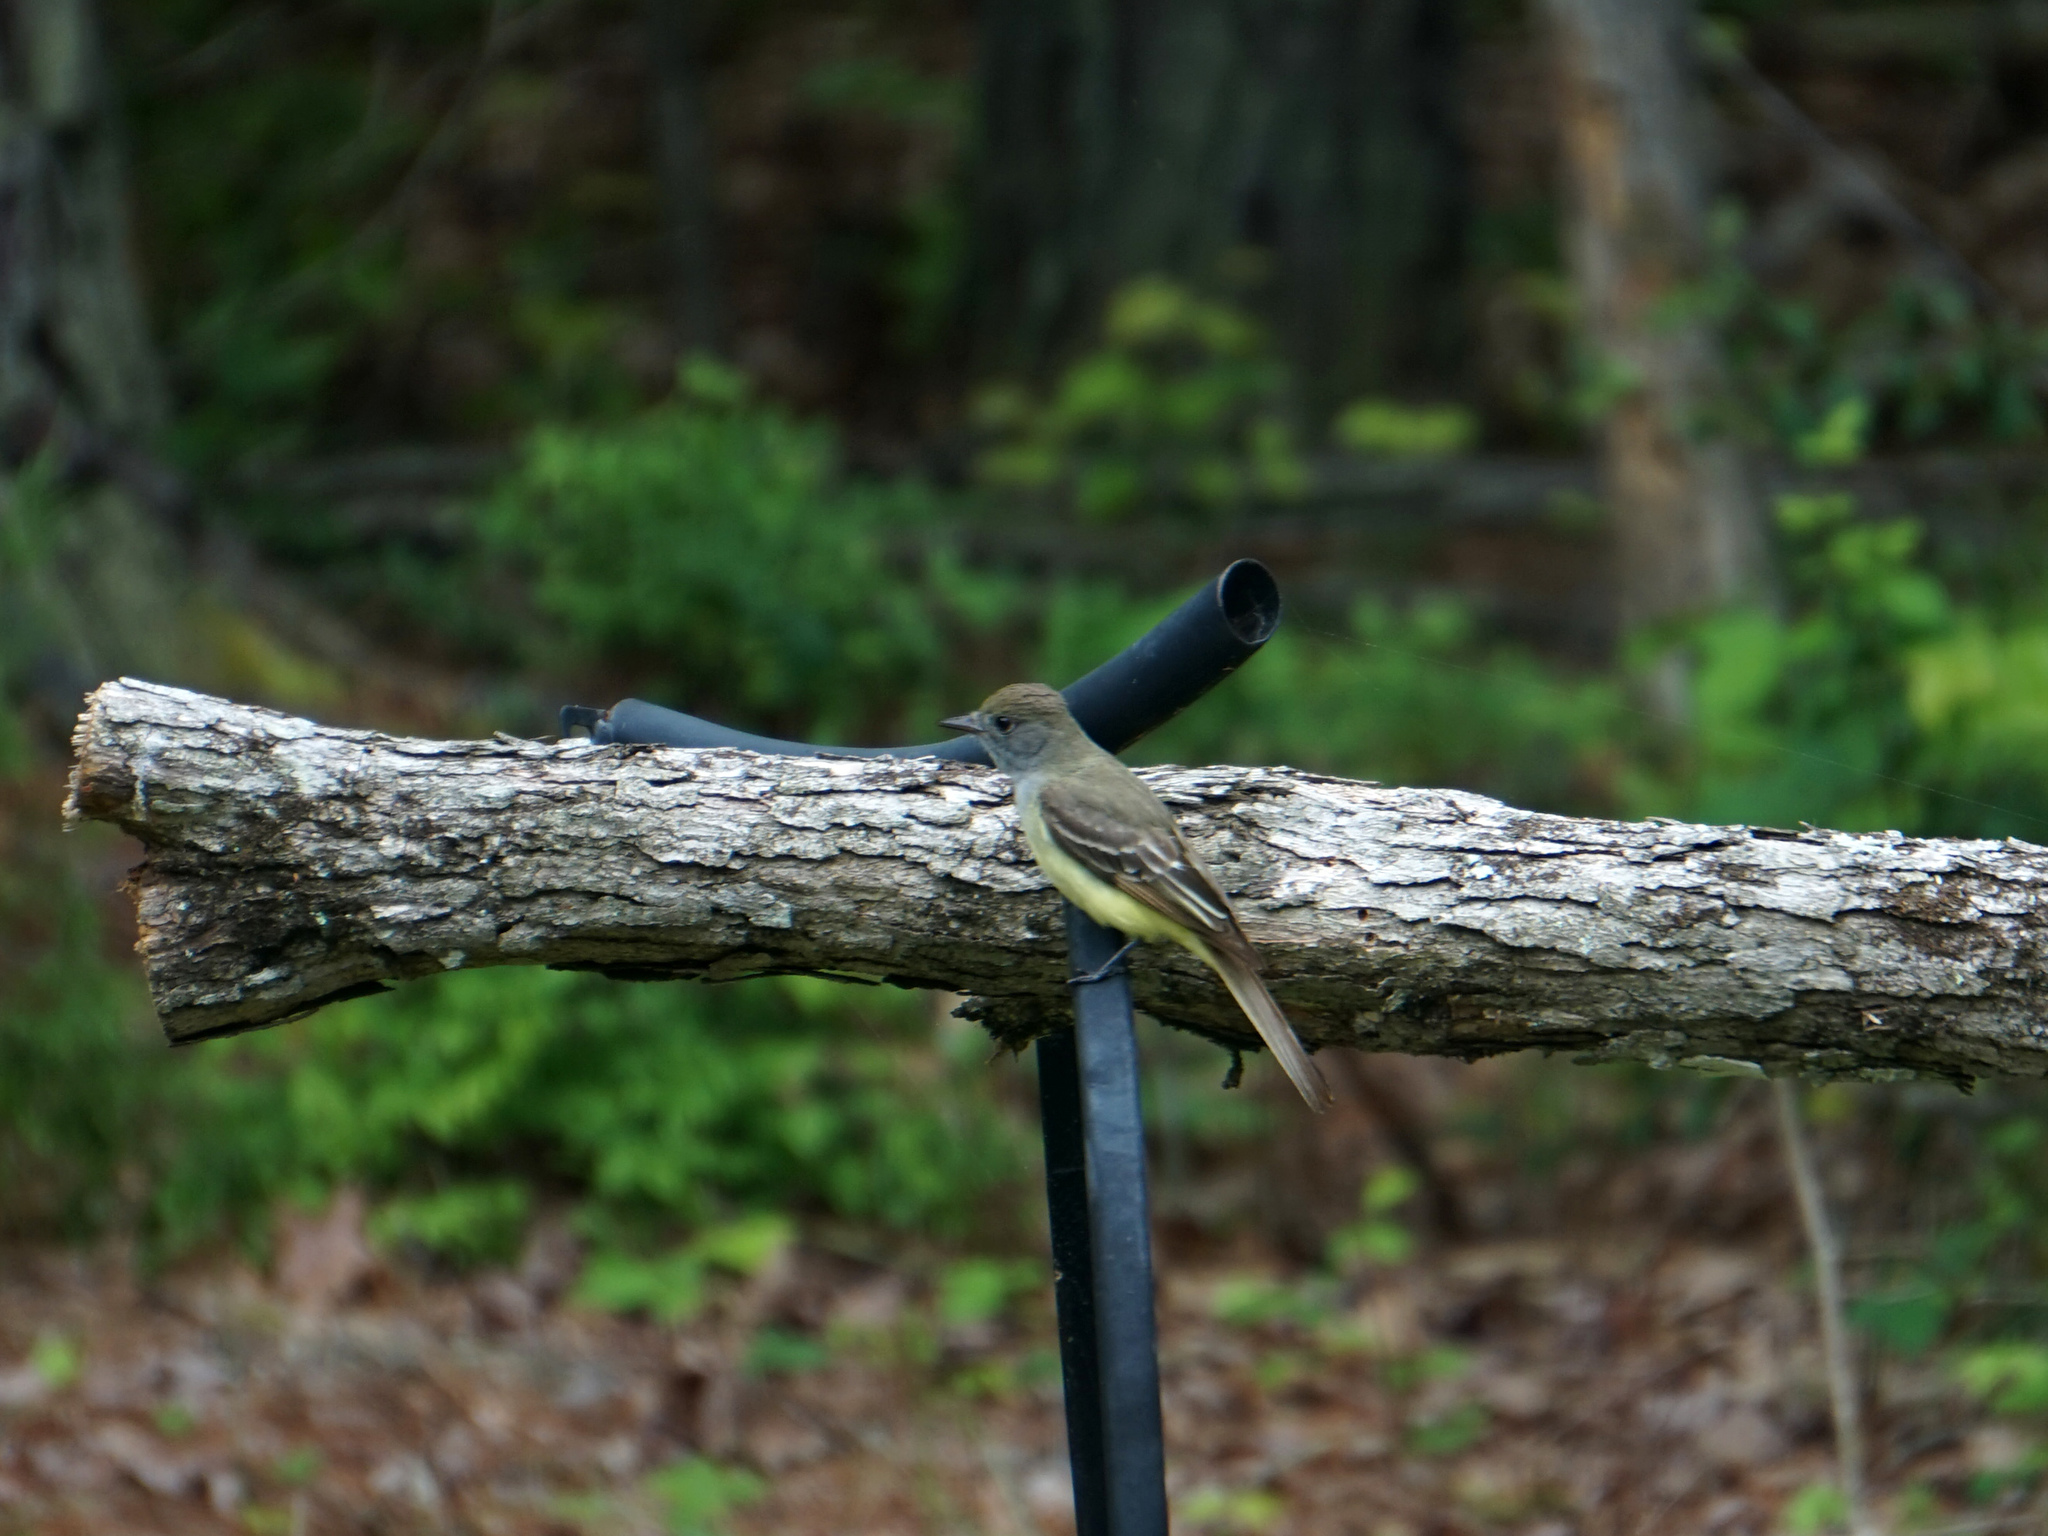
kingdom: Animalia
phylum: Chordata
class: Aves
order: Passeriformes
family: Tyrannidae
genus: Myiarchus
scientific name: Myiarchus crinitus
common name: Great crested flycatcher
